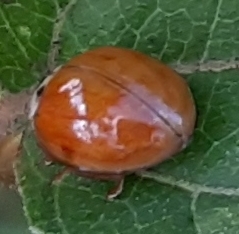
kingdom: Animalia
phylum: Arthropoda
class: Insecta
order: Coleoptera
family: Coccinellidae
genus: Harmonia
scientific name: Harmonia axyridis
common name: Harlequin ladybird
